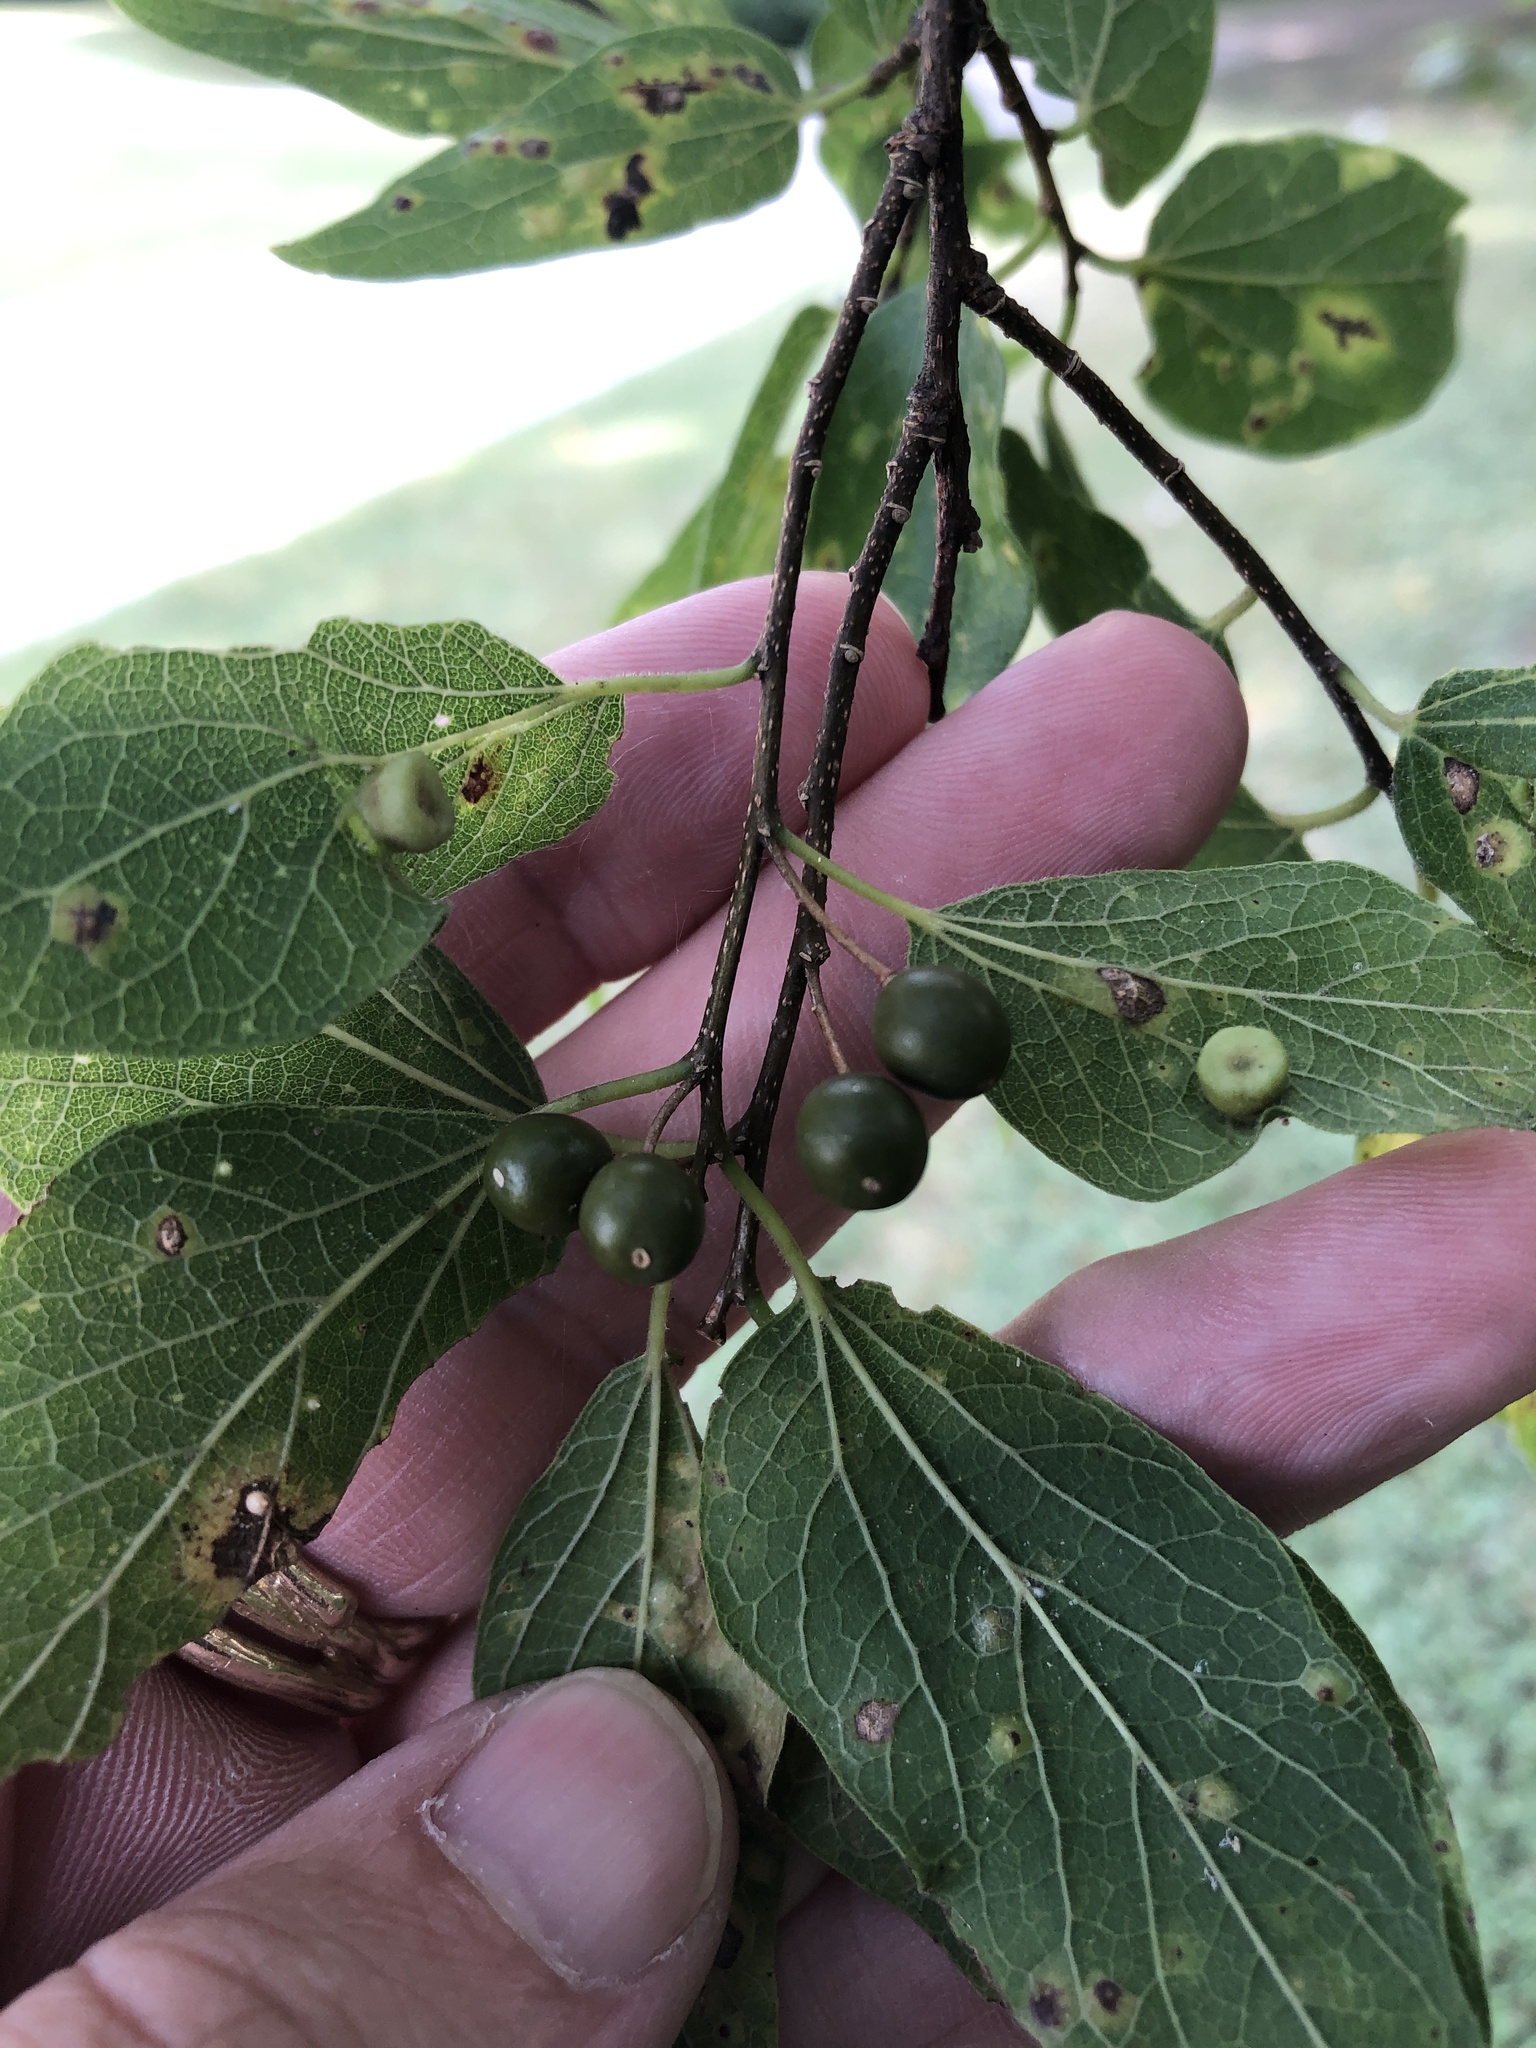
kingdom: Plantae
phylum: Tracheophyta
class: Magnoliopsida
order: Rosales
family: Cannabaceae
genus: Celtis
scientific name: Celtis laevigata
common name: Sugarberry
